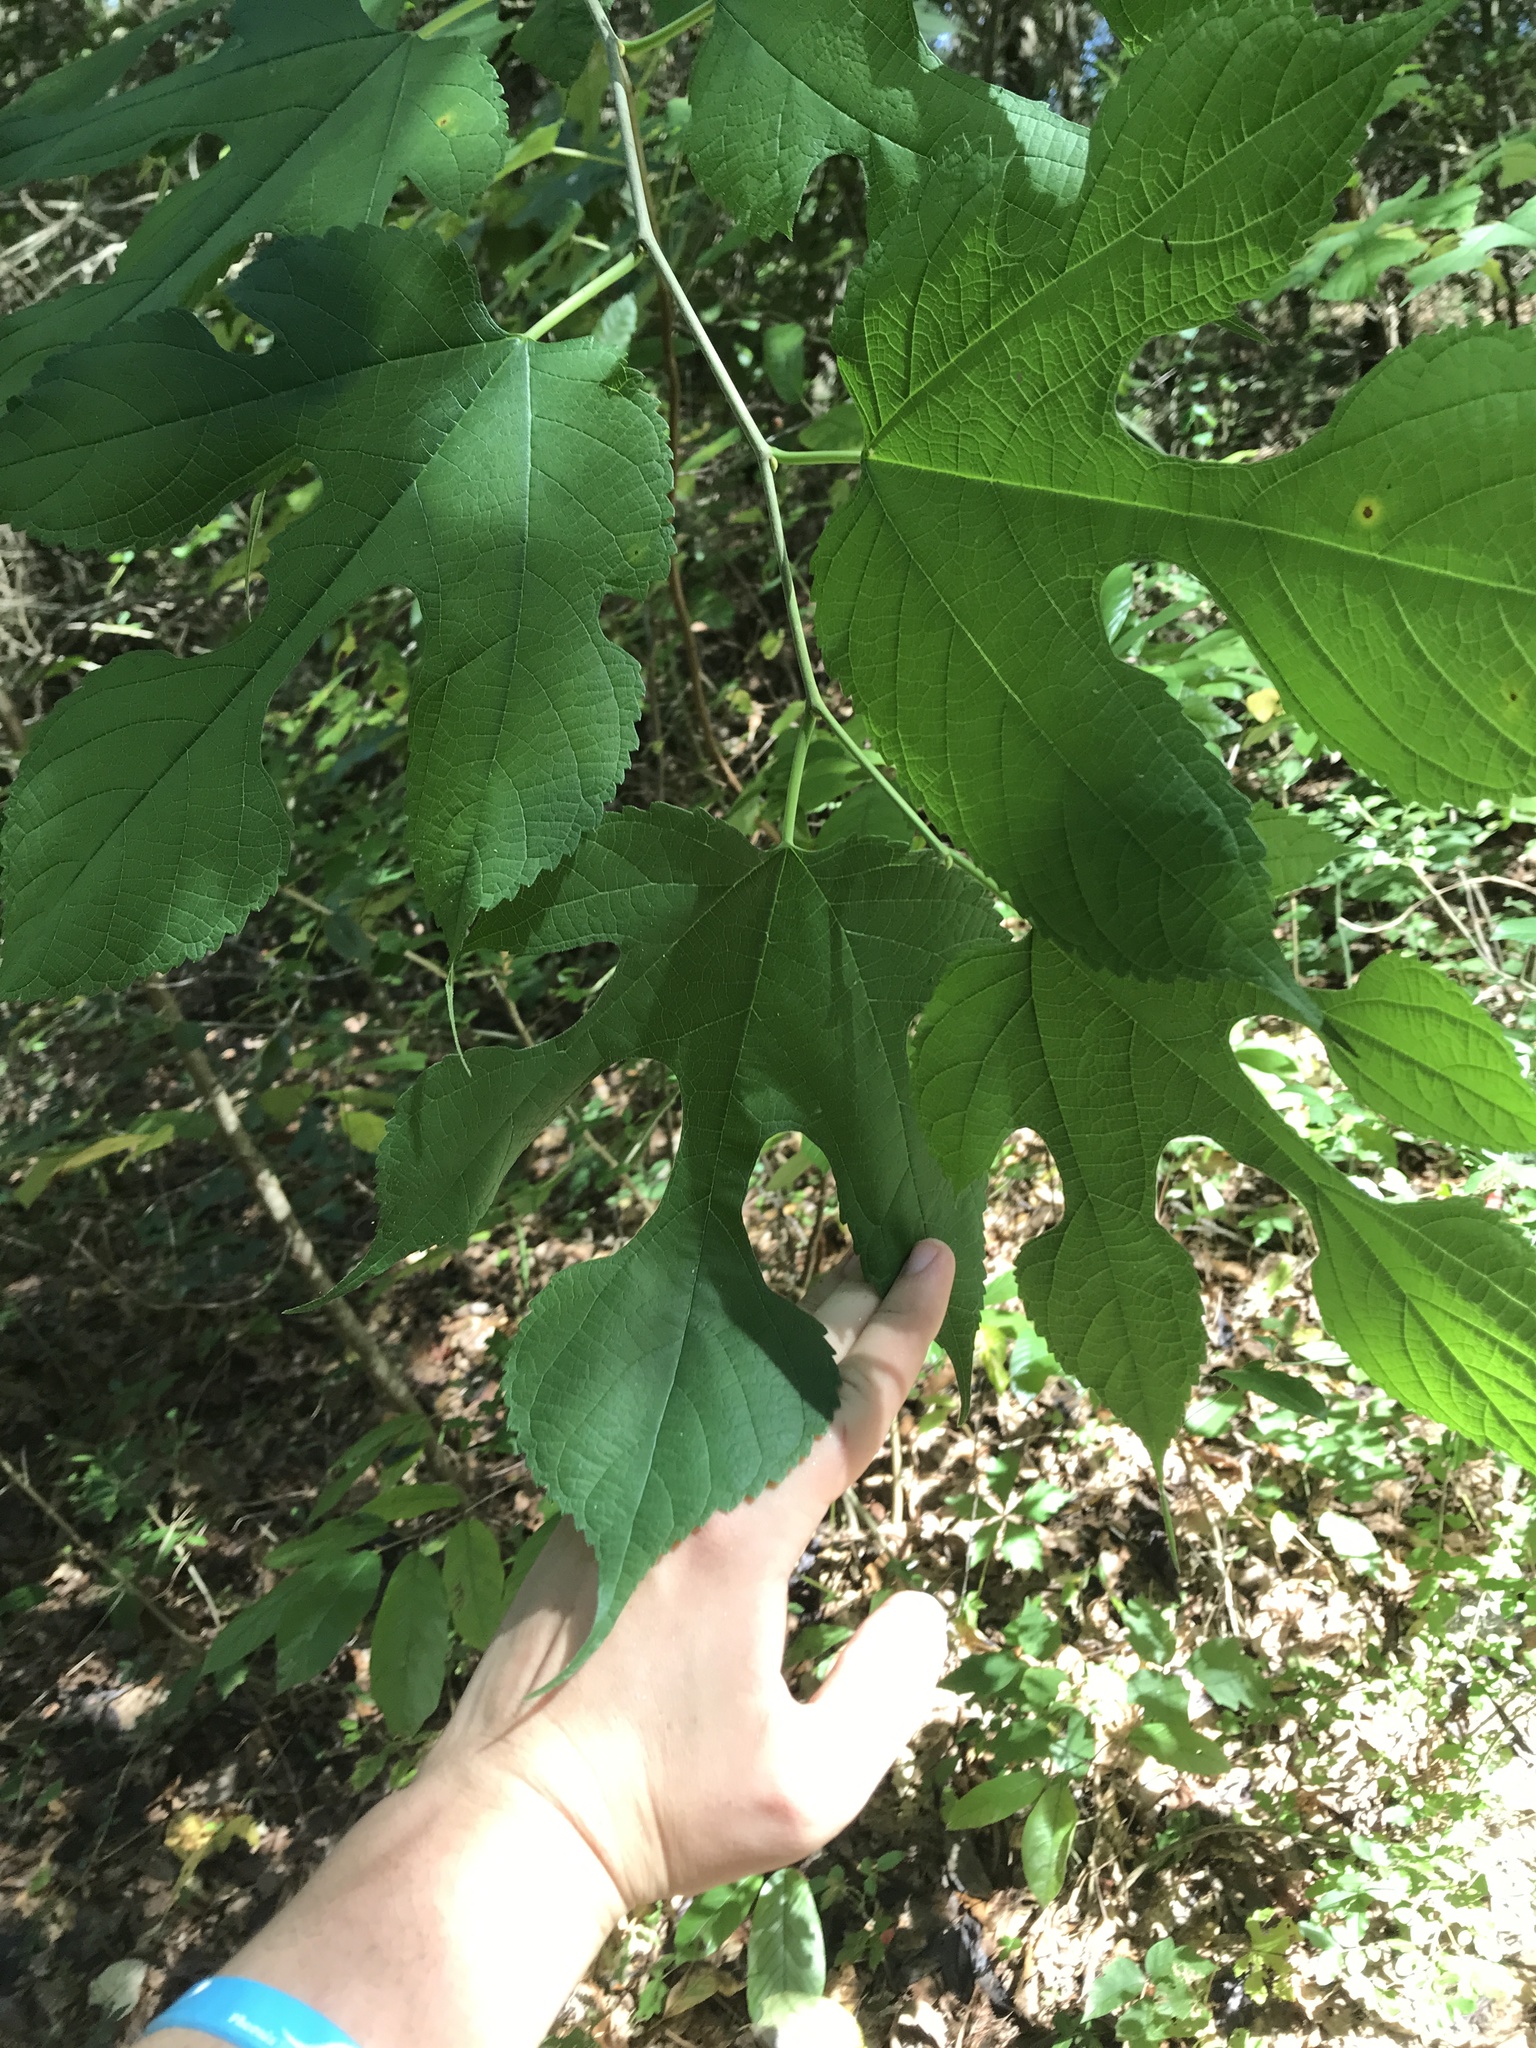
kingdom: Plantae
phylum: Tracheophyta
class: Magnoliopsida
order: Rosales
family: Moraceae
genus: Morus
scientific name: Morus rubra
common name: Red mulberry
